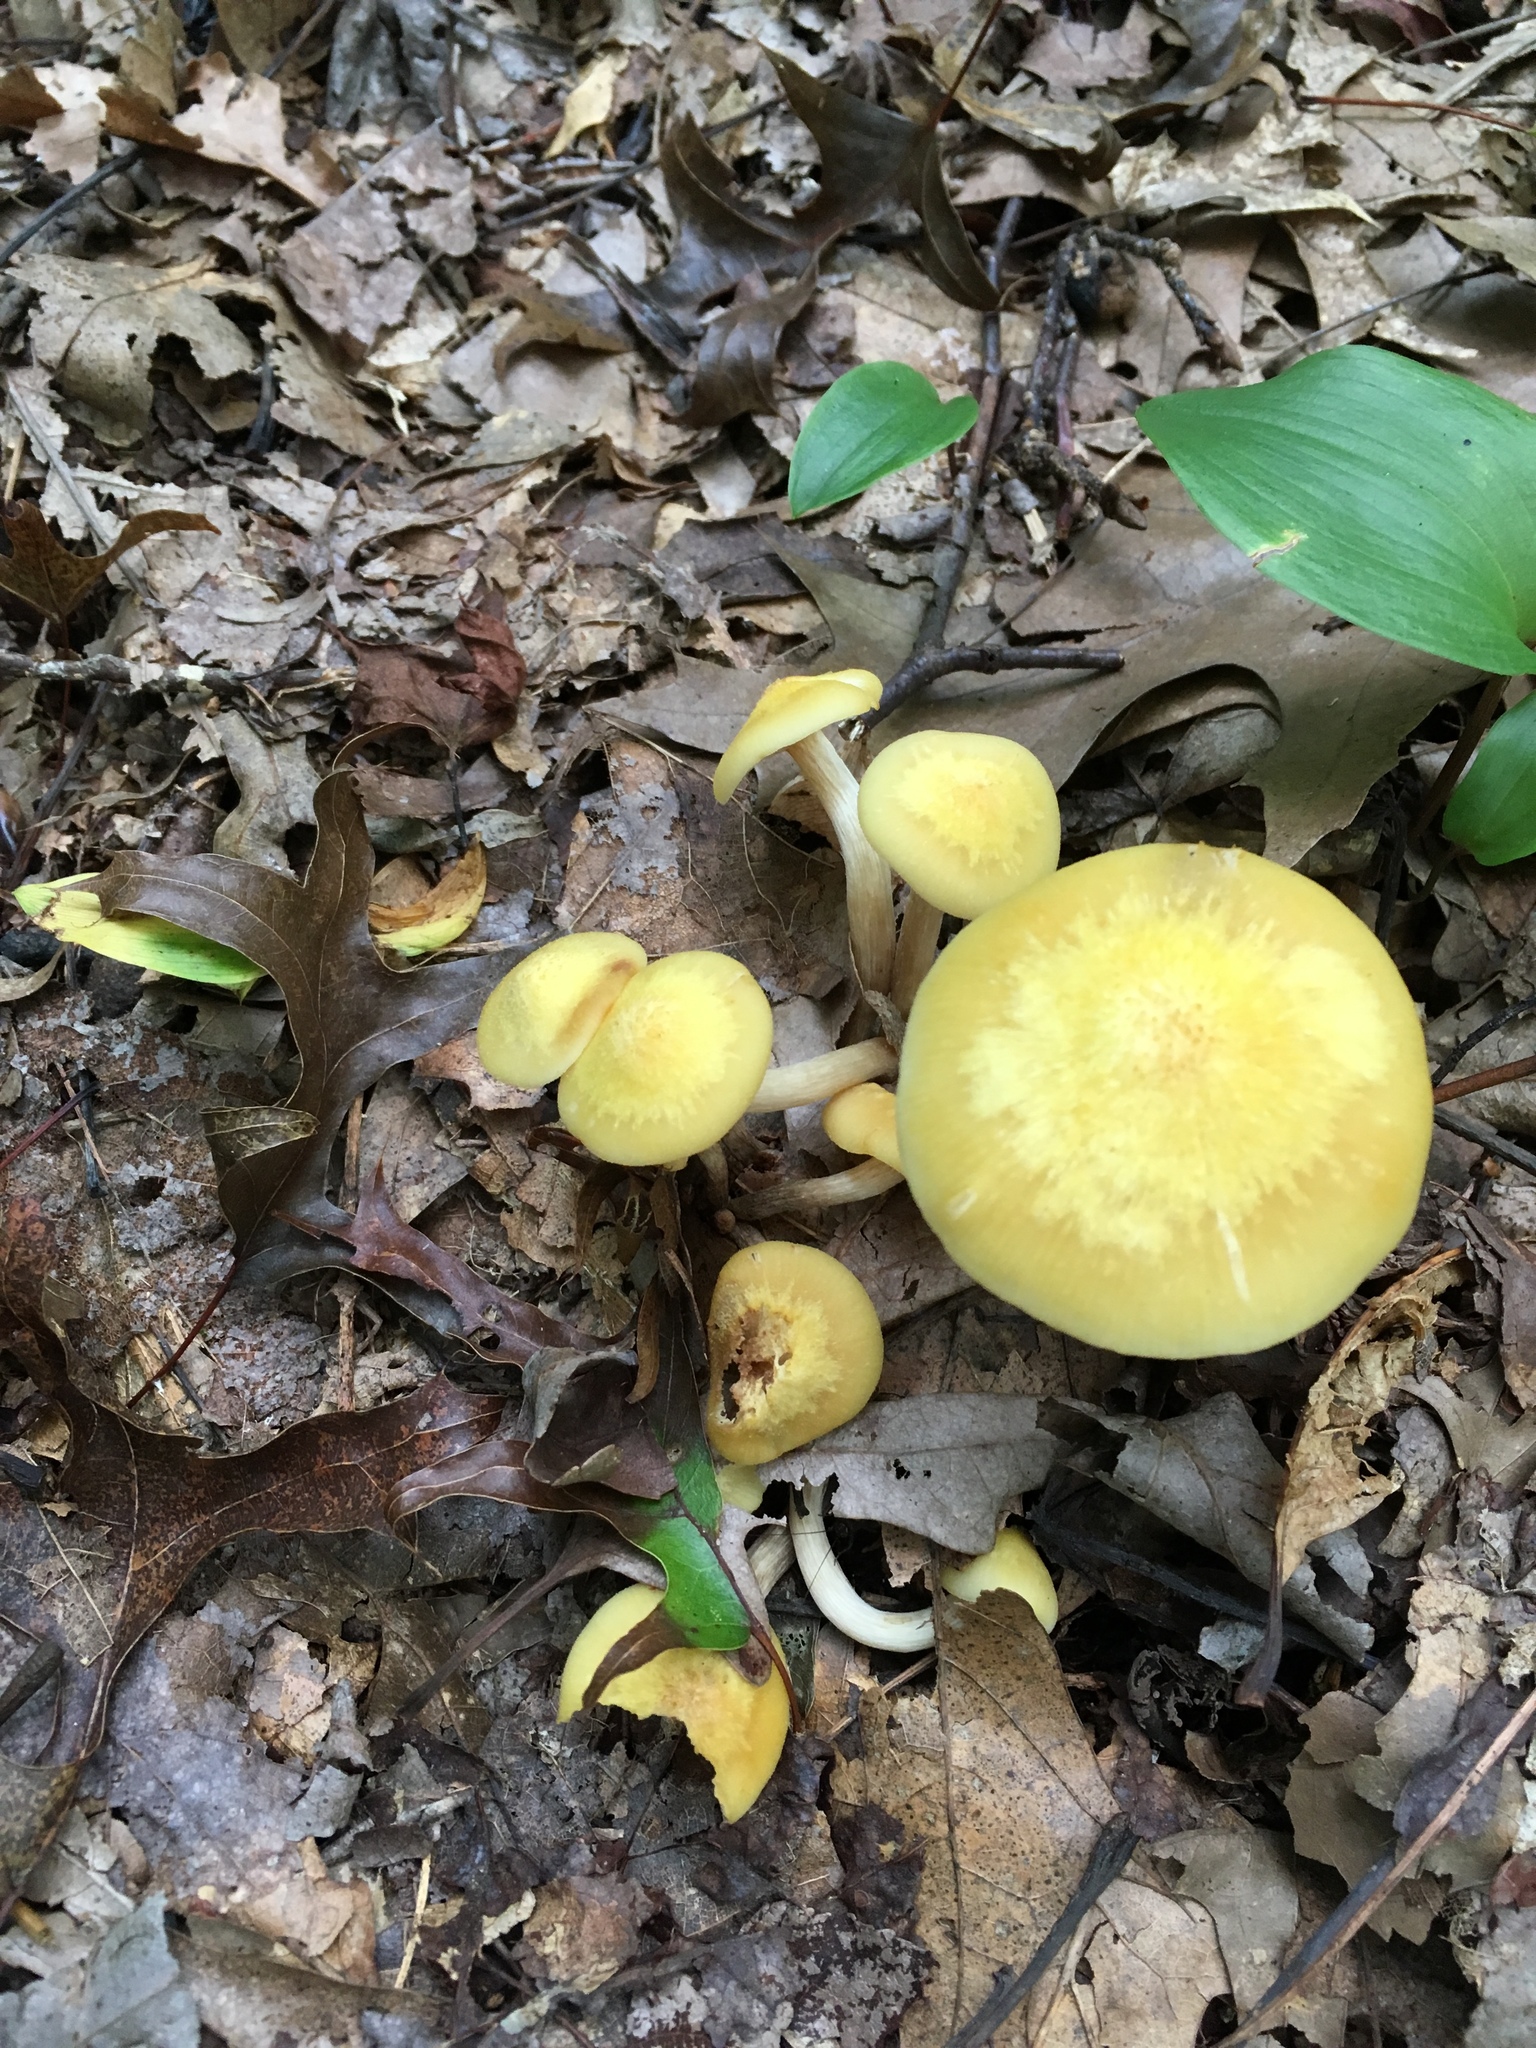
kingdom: Fungi
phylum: Basidiomycota
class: Agaricomycetes
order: Agaricales
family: Physalacriaceae
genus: Desarmillaria
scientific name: Desarmillaria caespitosa
